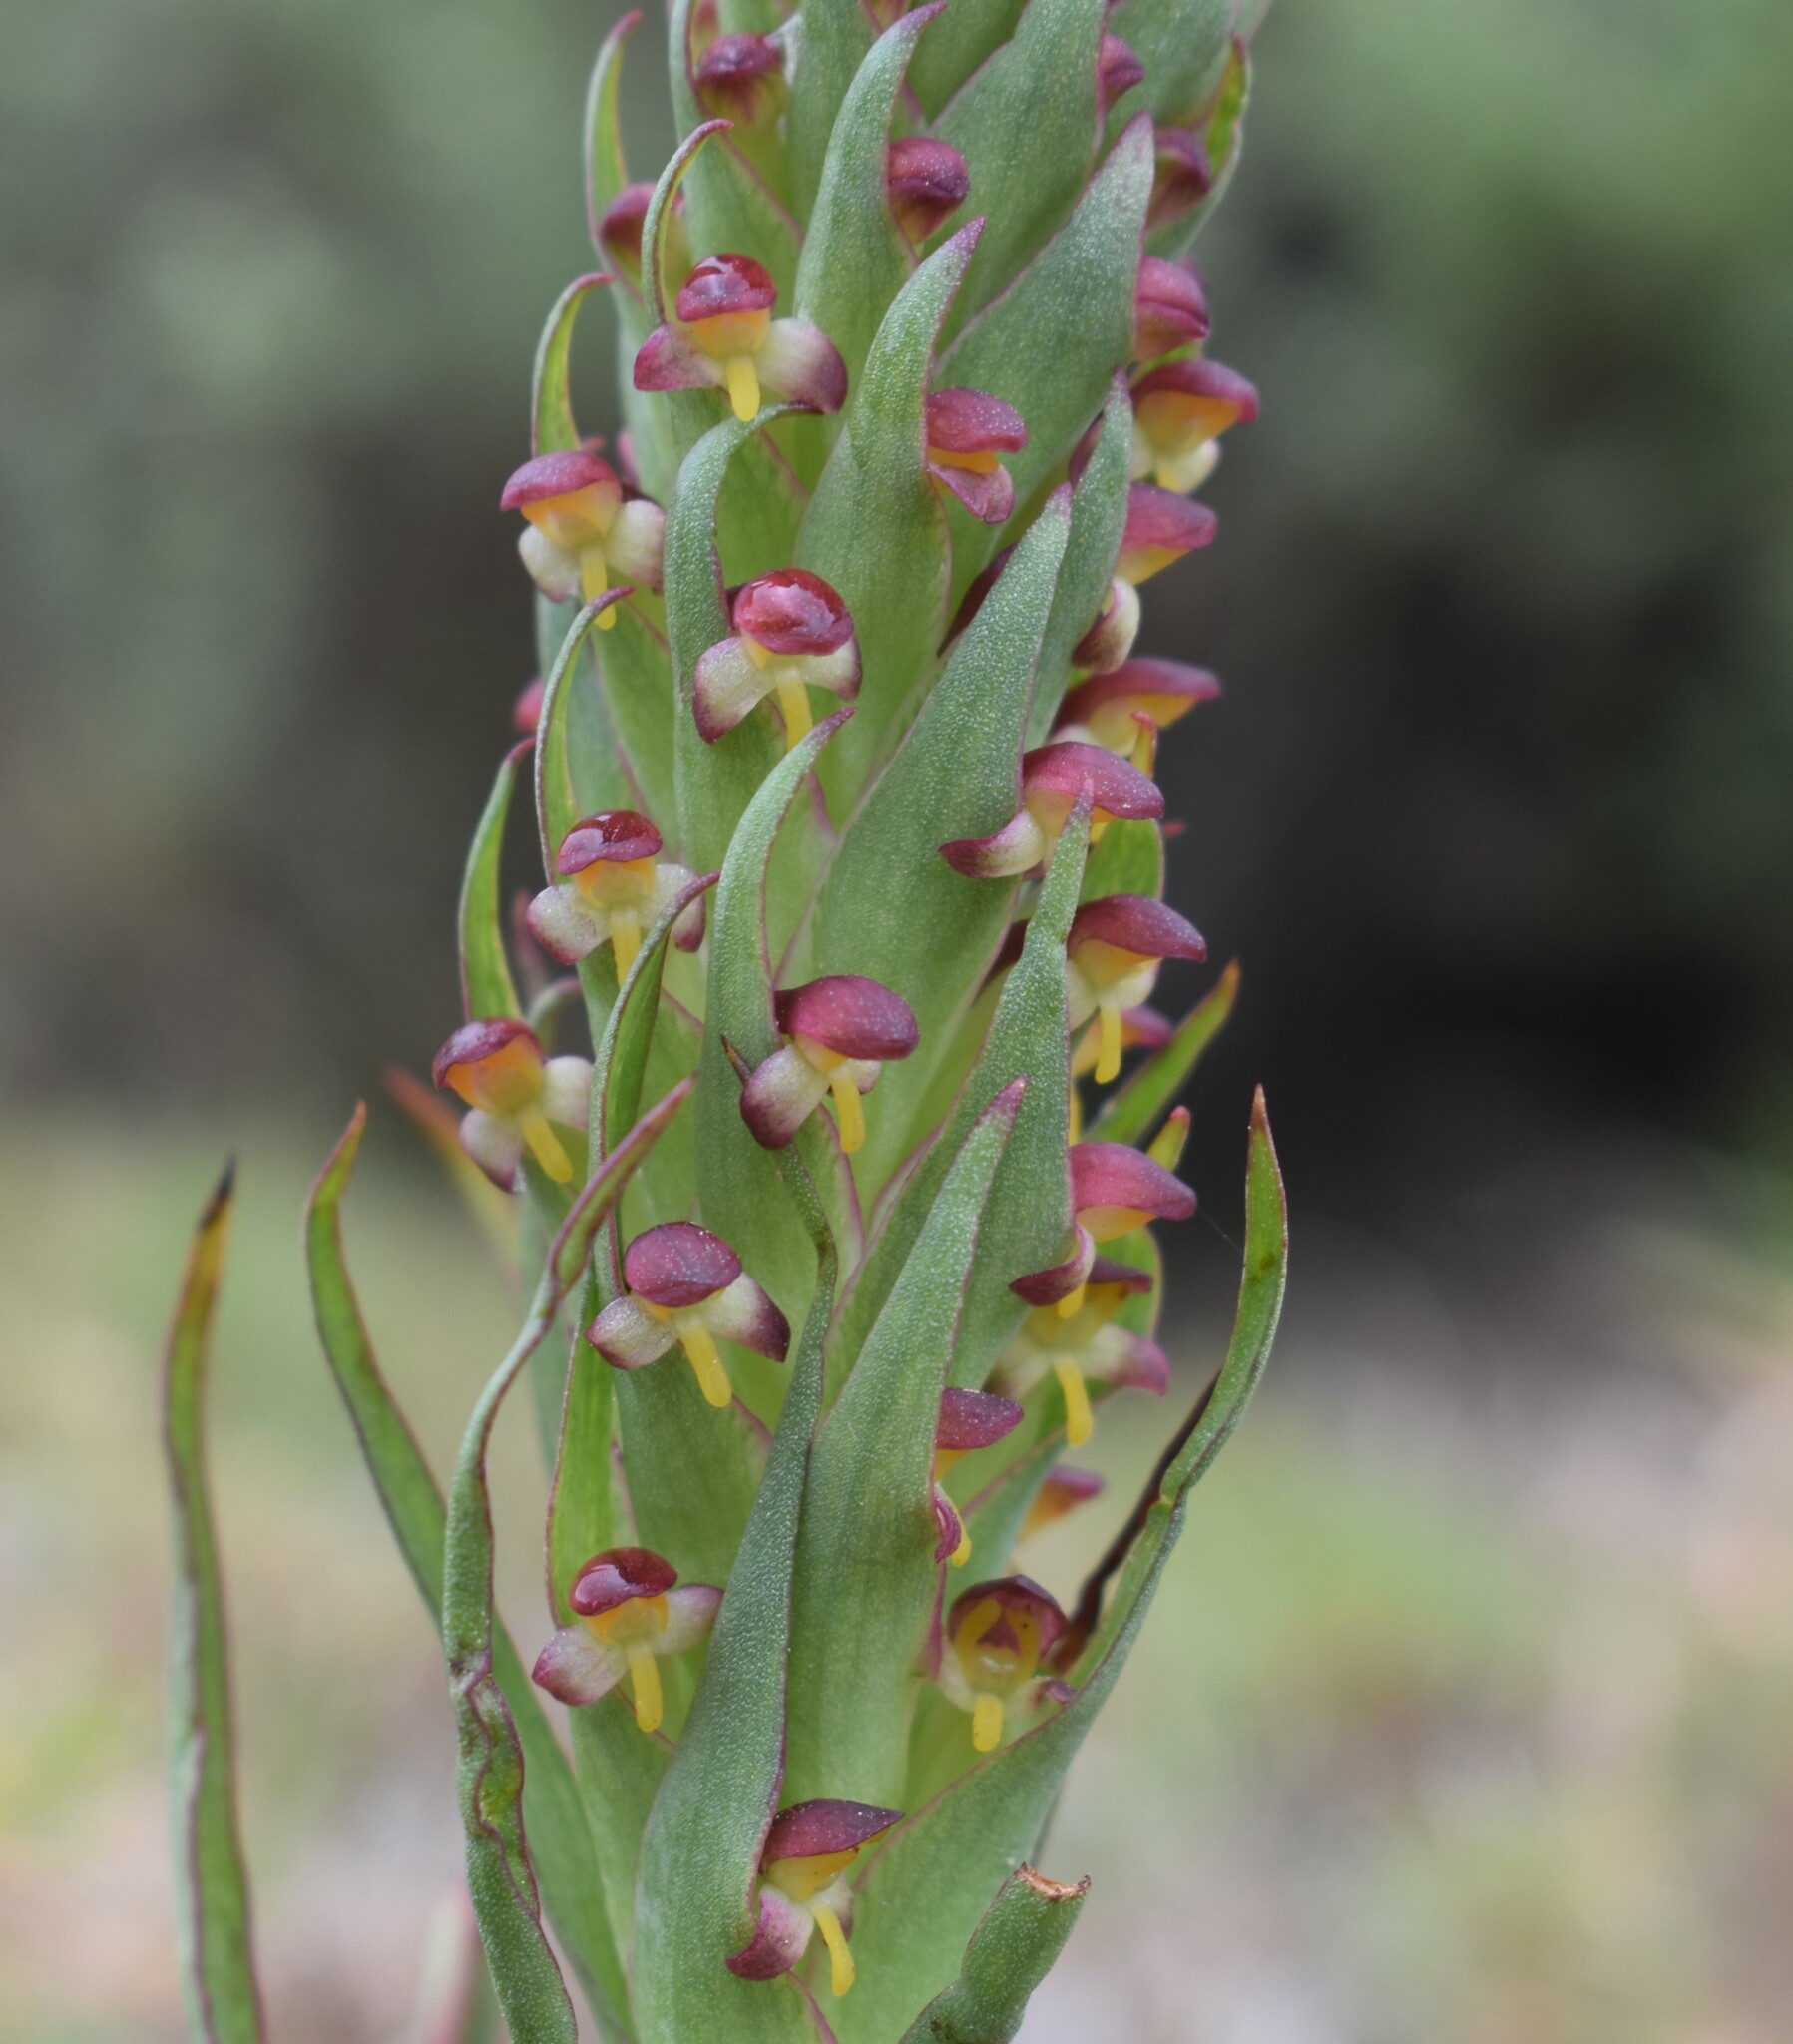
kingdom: Plantae
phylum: Tracheophyta
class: Liliopsida
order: Asparagales
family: Orchidaceae
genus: Disa
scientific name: Disa bracteata
